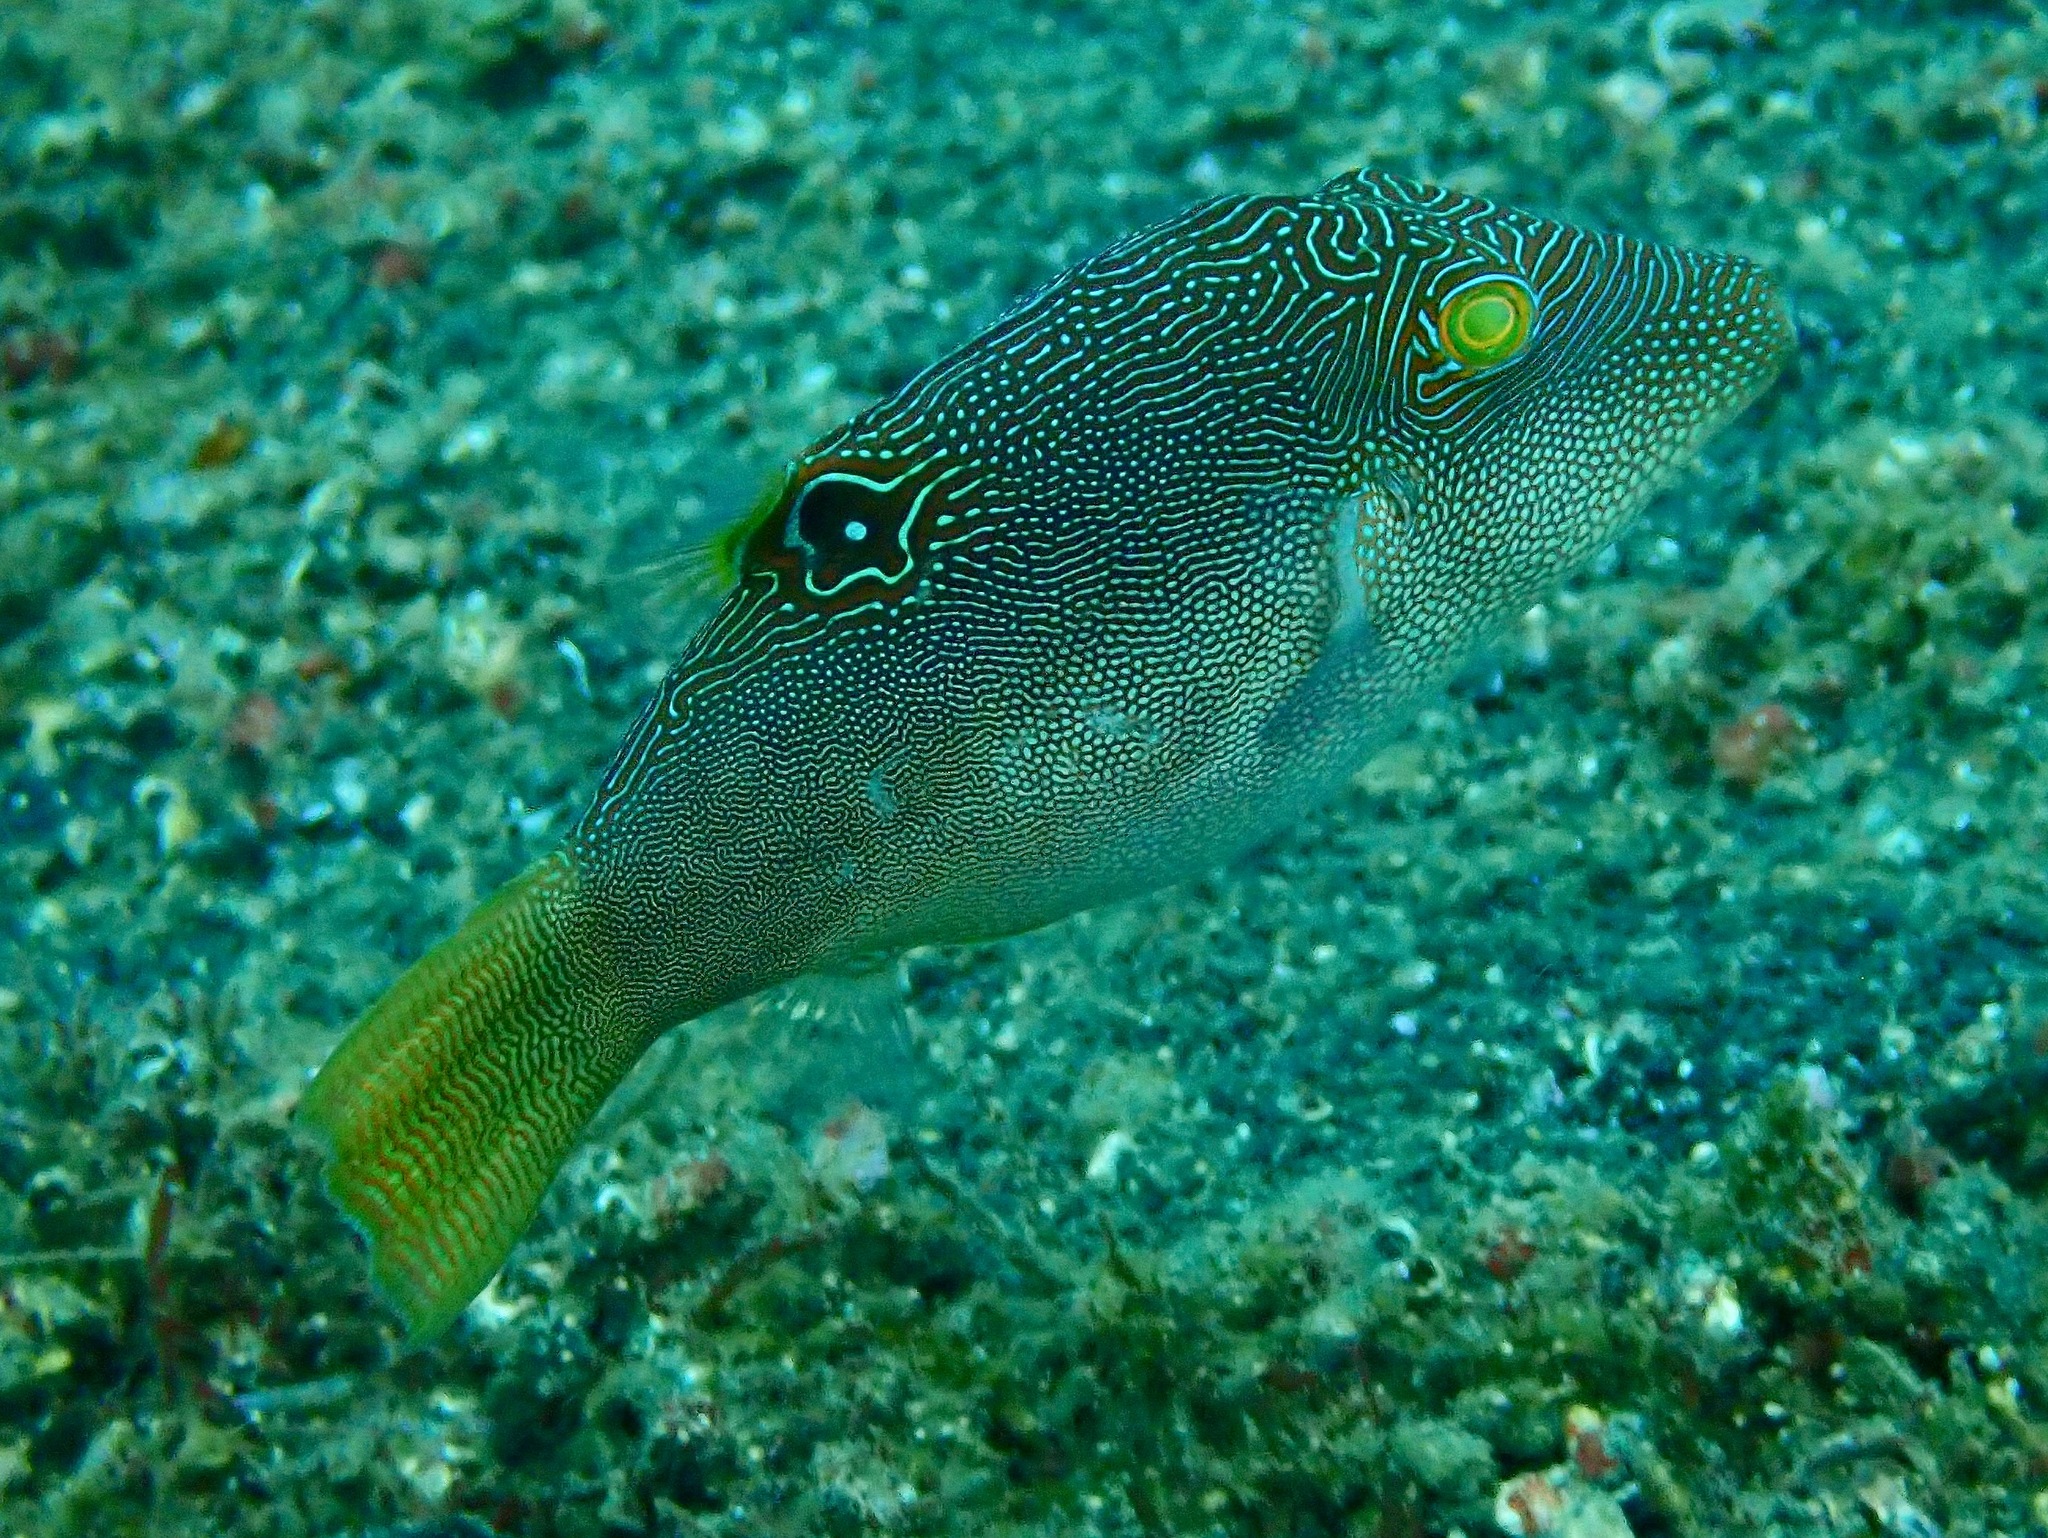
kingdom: Animalia
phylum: Chordata
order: Tetraodontiformes
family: Tetraodontidae
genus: Canthigaster
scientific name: Canthigaster compressa
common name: Compressed toby
